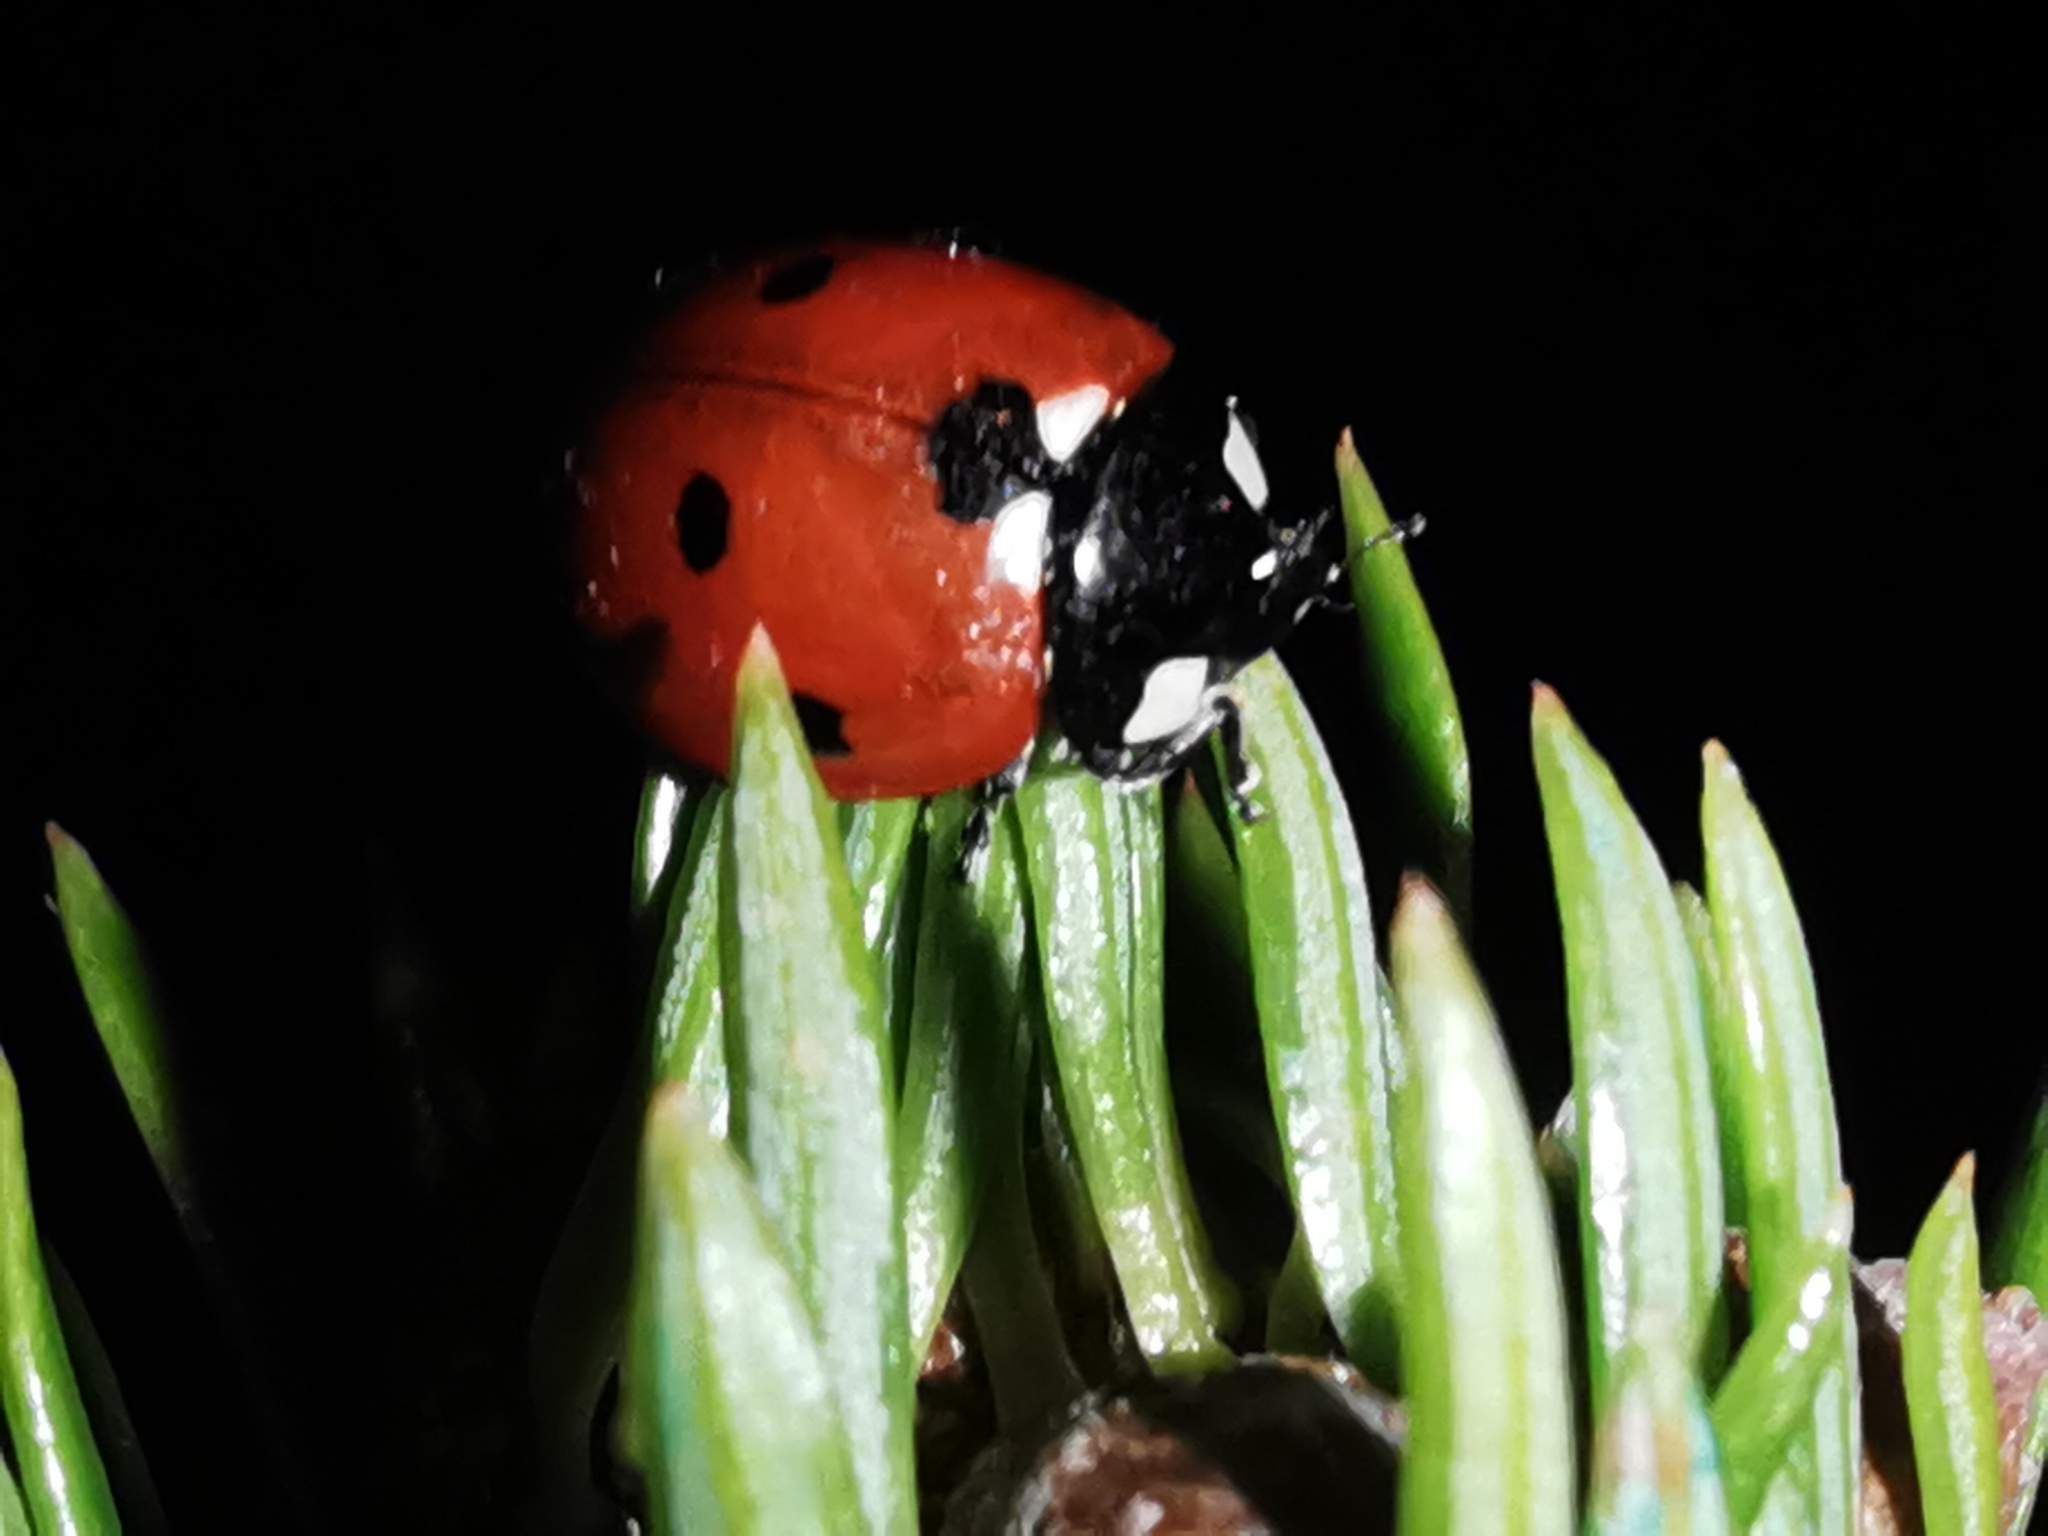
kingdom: Animalia
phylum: Arthropoda
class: Insecta
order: Coleoptera
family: Coccinellidae
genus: Coccinella
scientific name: Coccinella septempunctata
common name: Sevenspotted lady beetle
